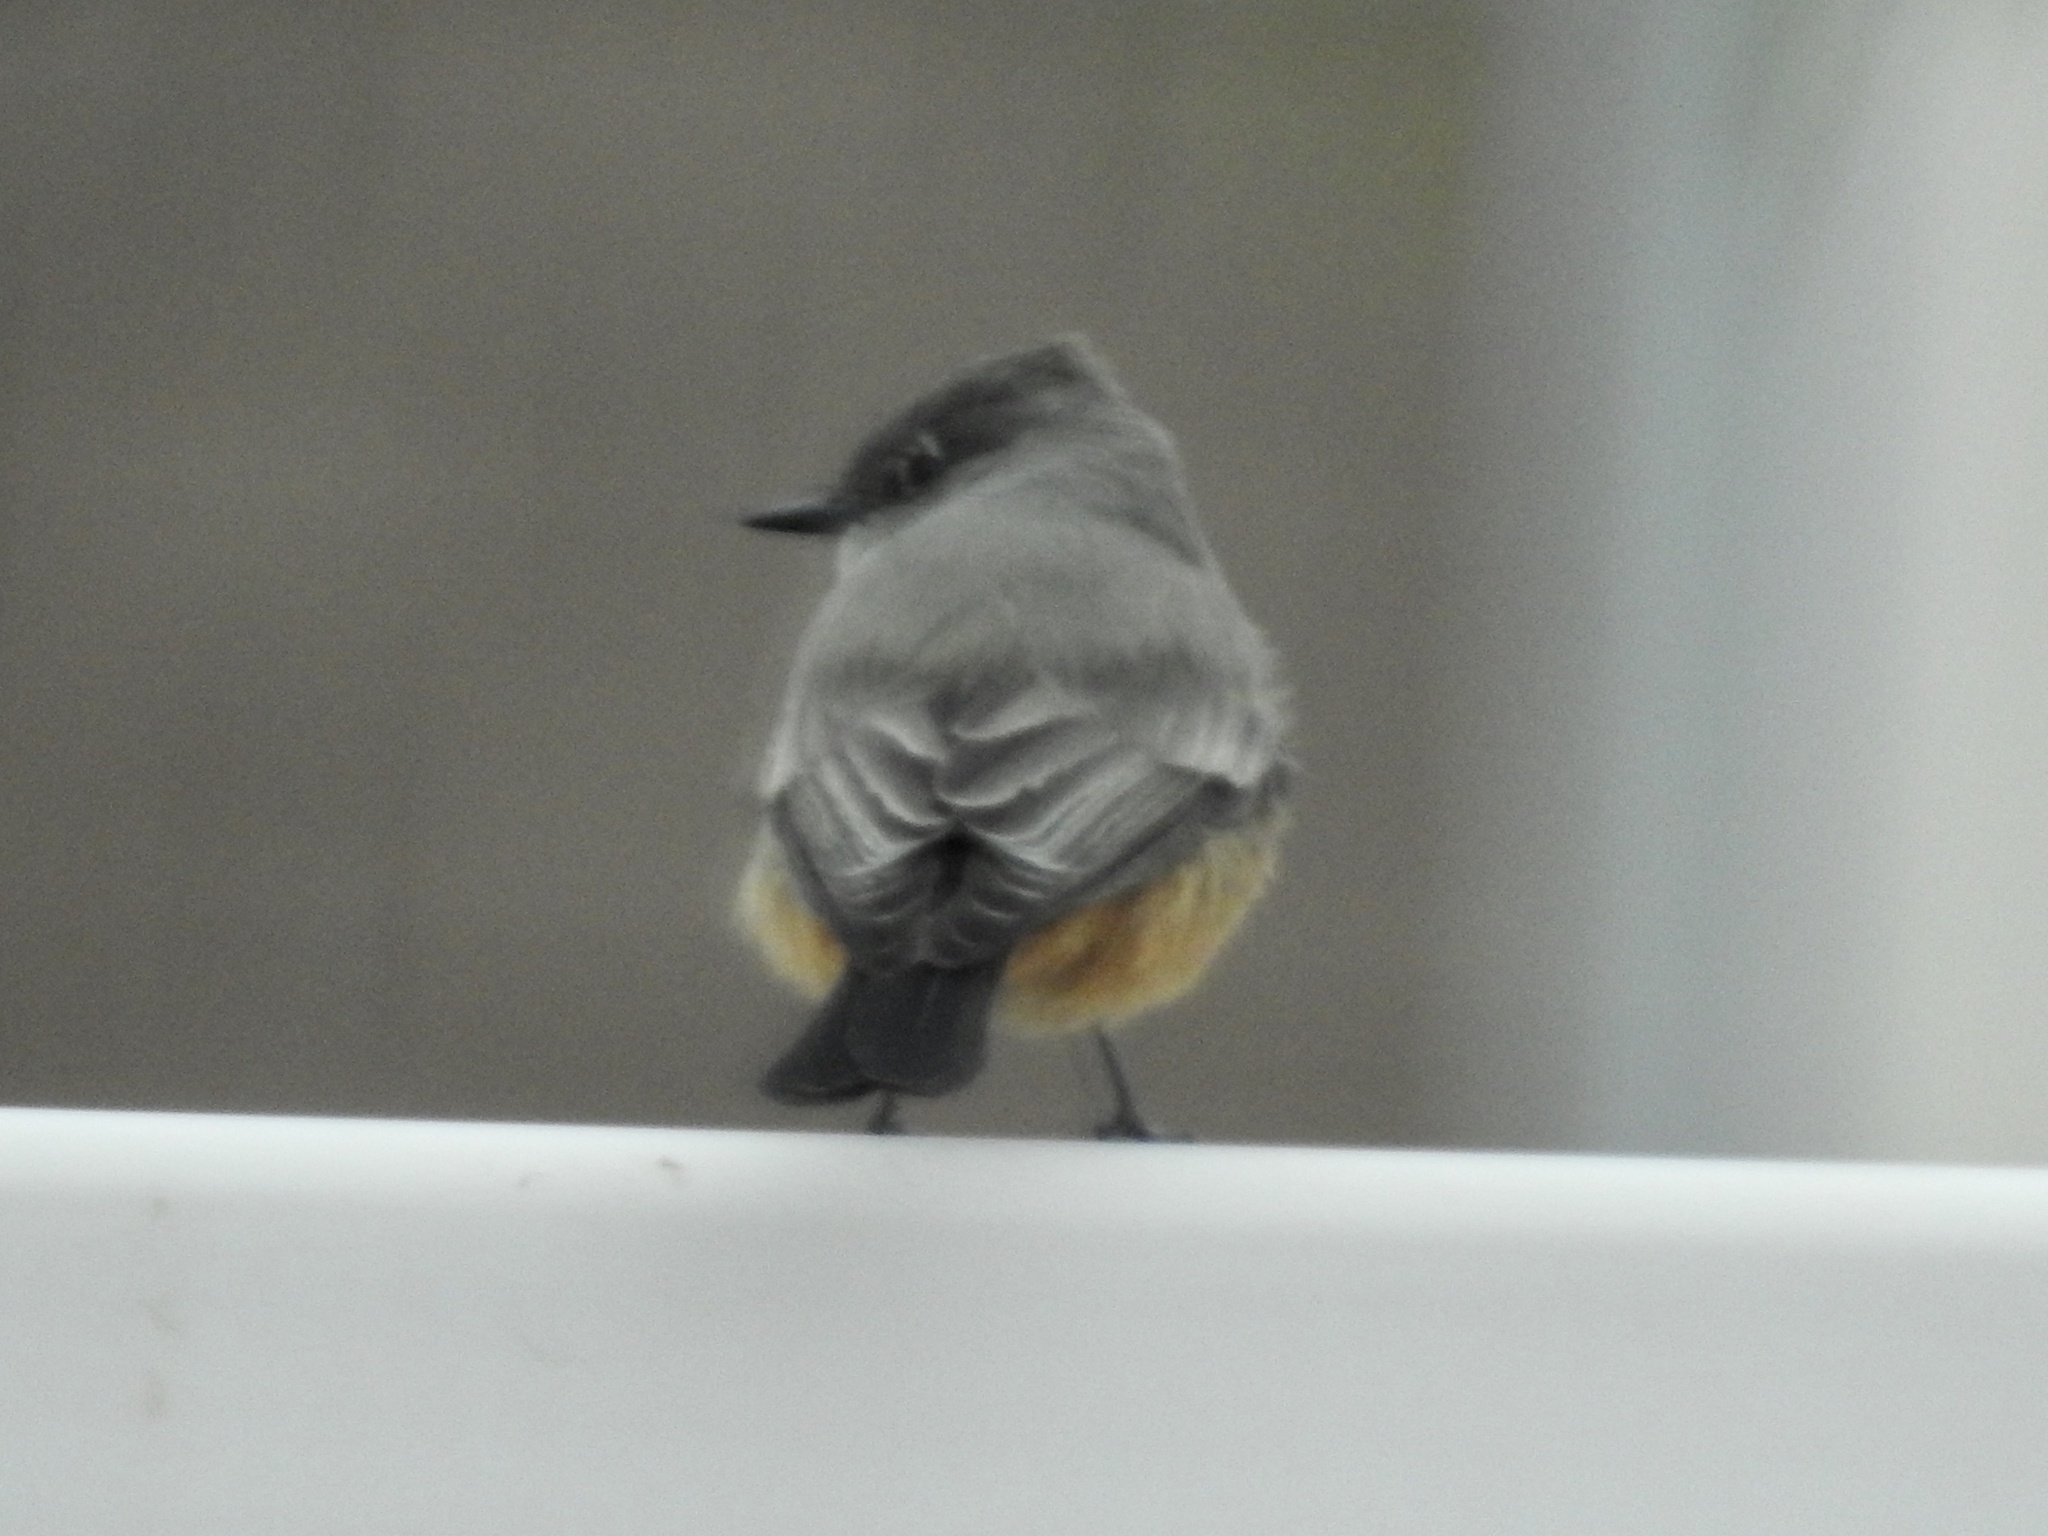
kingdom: Animalia
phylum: Chordata
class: Aves
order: Passeriformes
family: Tyrannidae
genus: Sayornis
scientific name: Sayornis saya
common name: Say's phoebe
